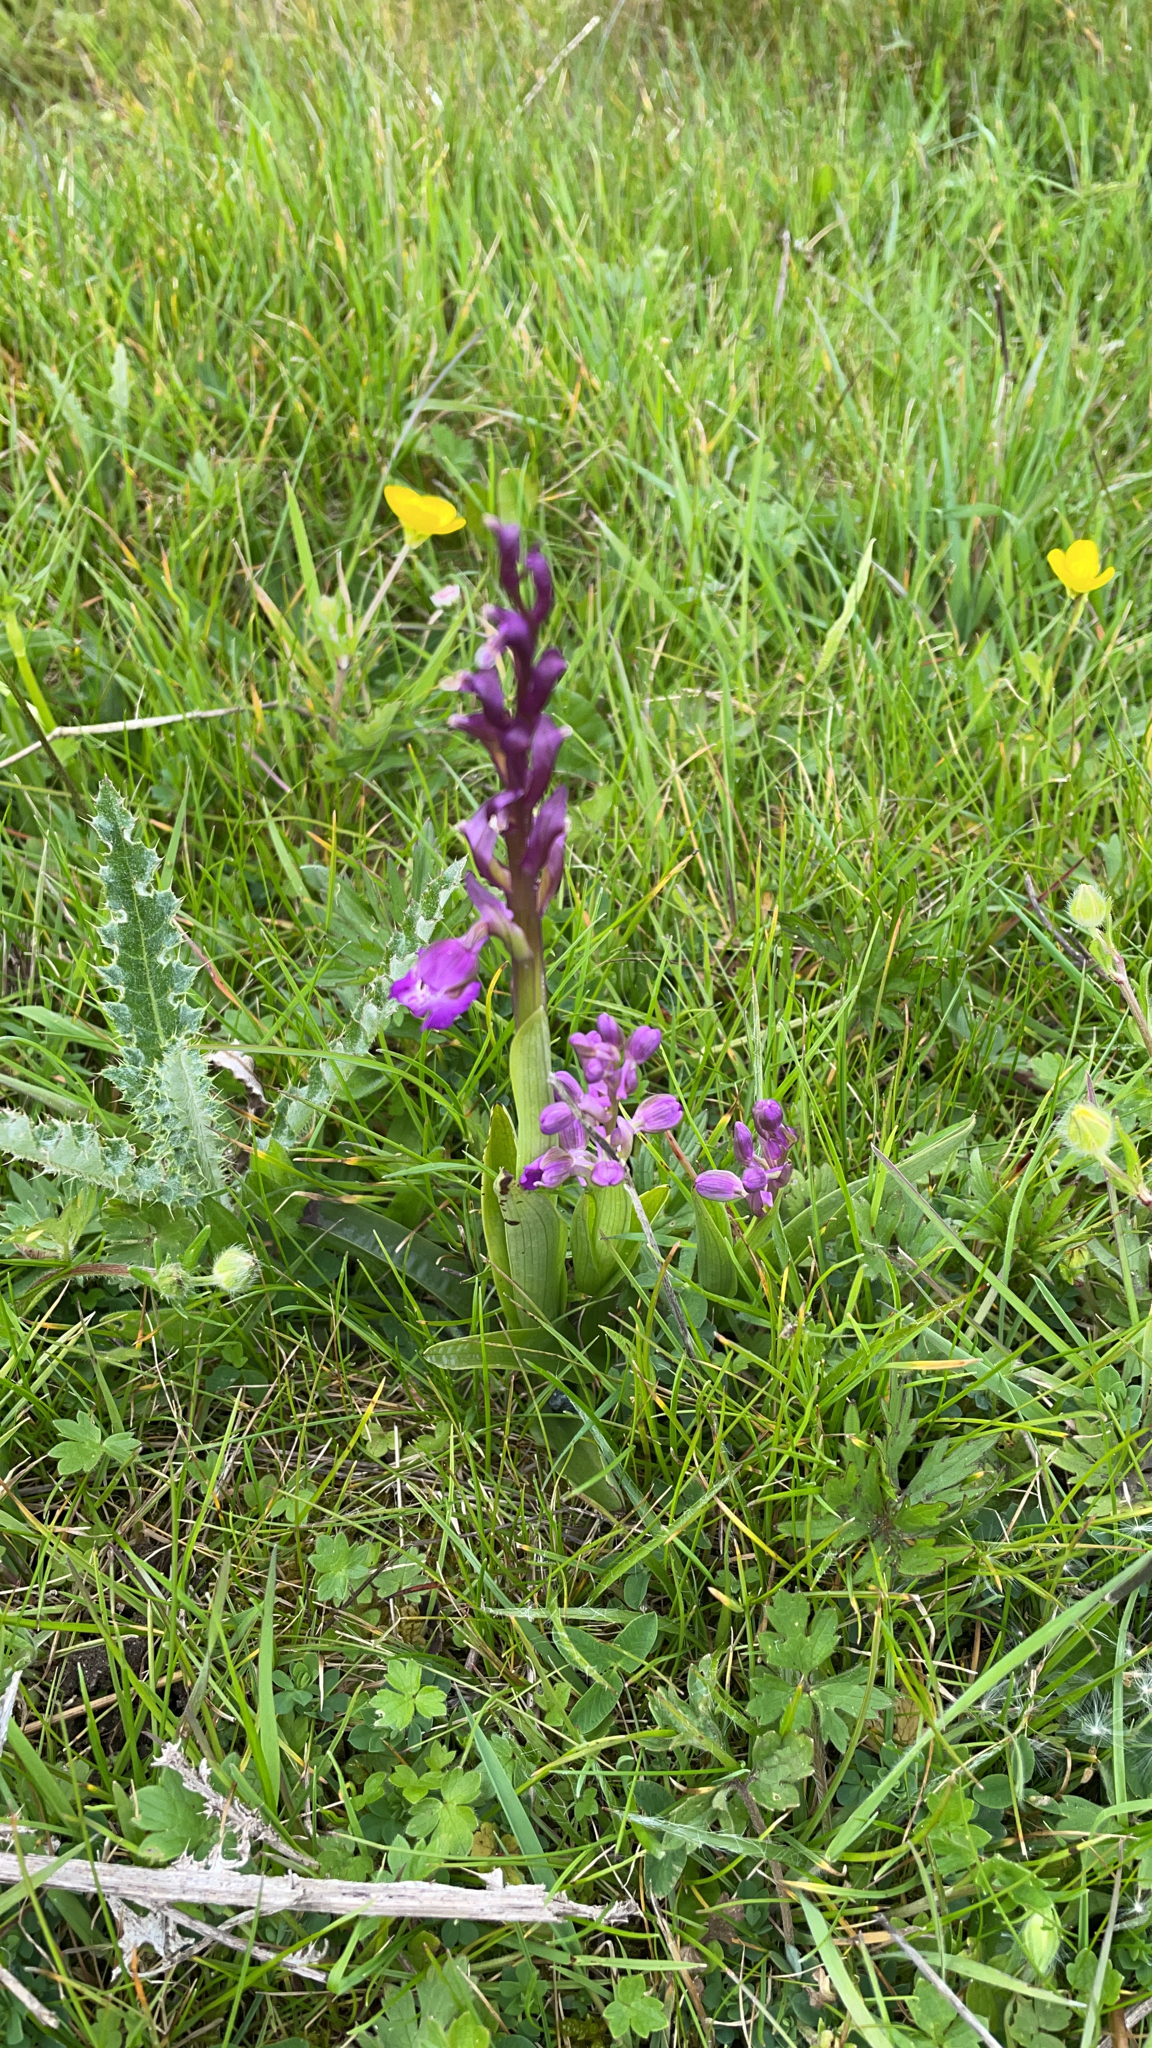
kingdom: Plantae
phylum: Tracheophyta
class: Liliopsida
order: Asparagales
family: Orchidaceae
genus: Anacamptis
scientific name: Anacamptis morio
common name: Green-winged orchid
